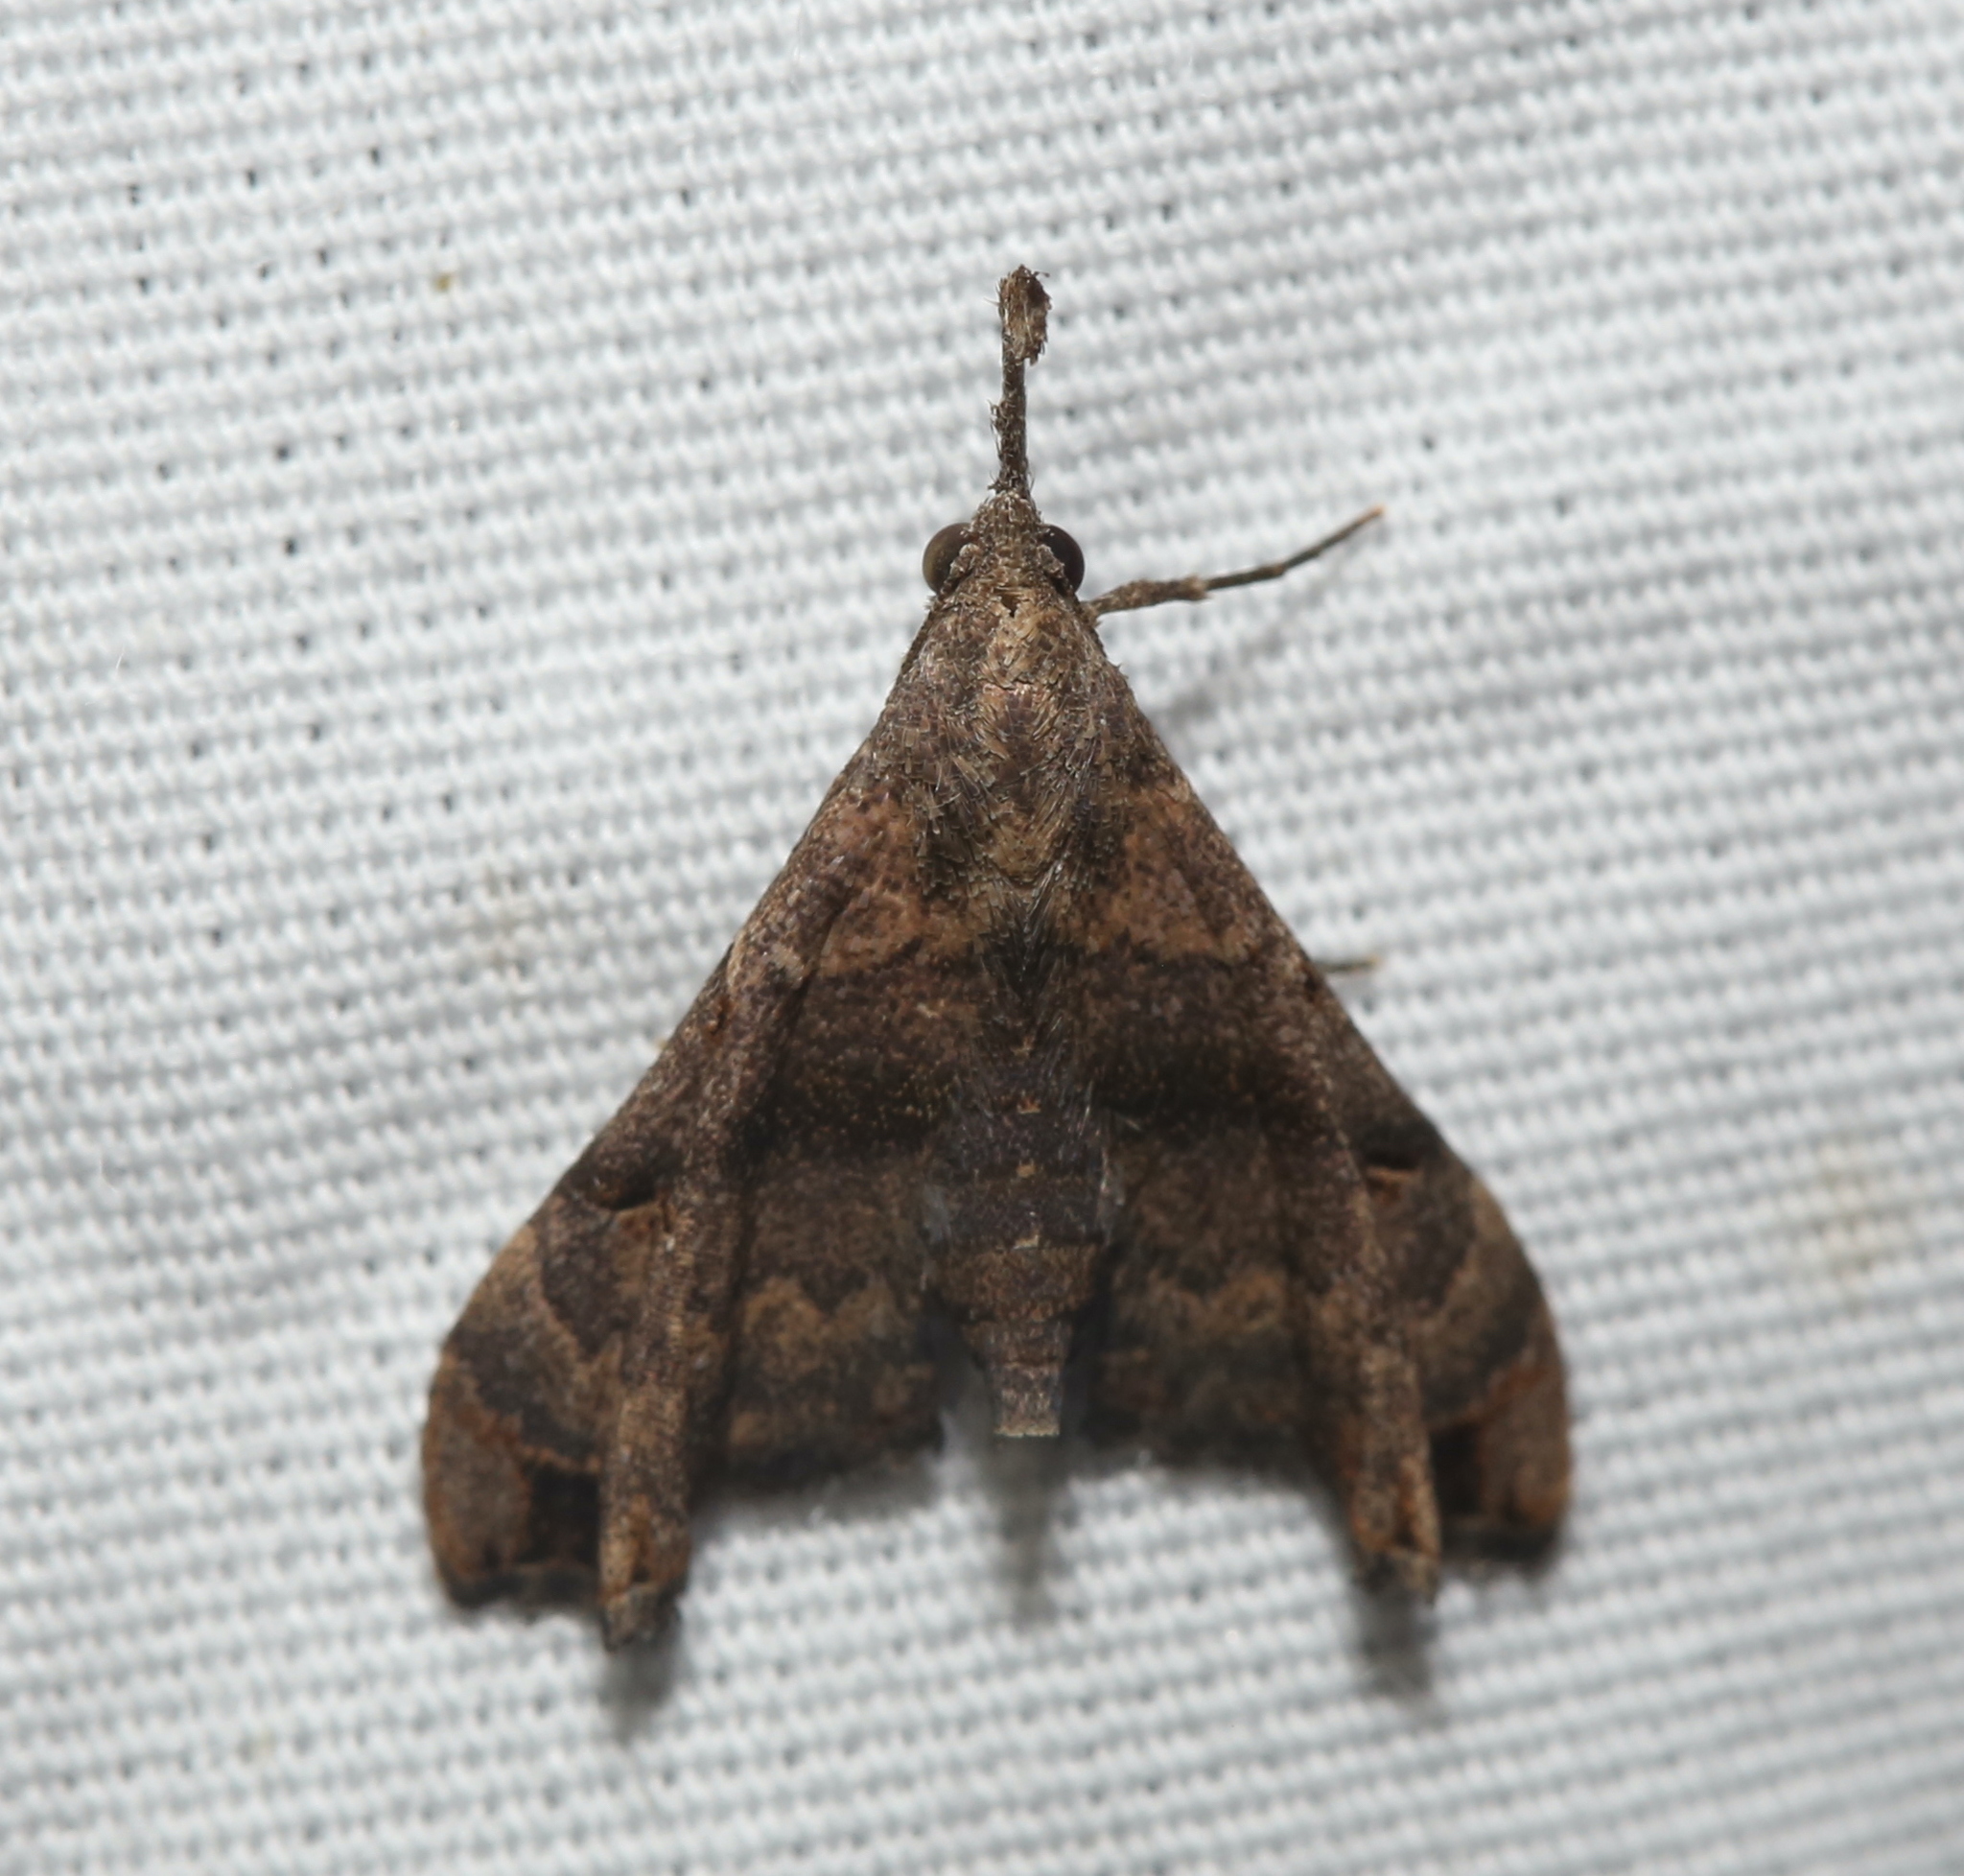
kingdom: Animalia
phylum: Arthropoda
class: Insecta
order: Lepidoptera
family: Erebidae
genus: Palthis
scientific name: Palthis asopialis
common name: Faint-spotted palthis moth
